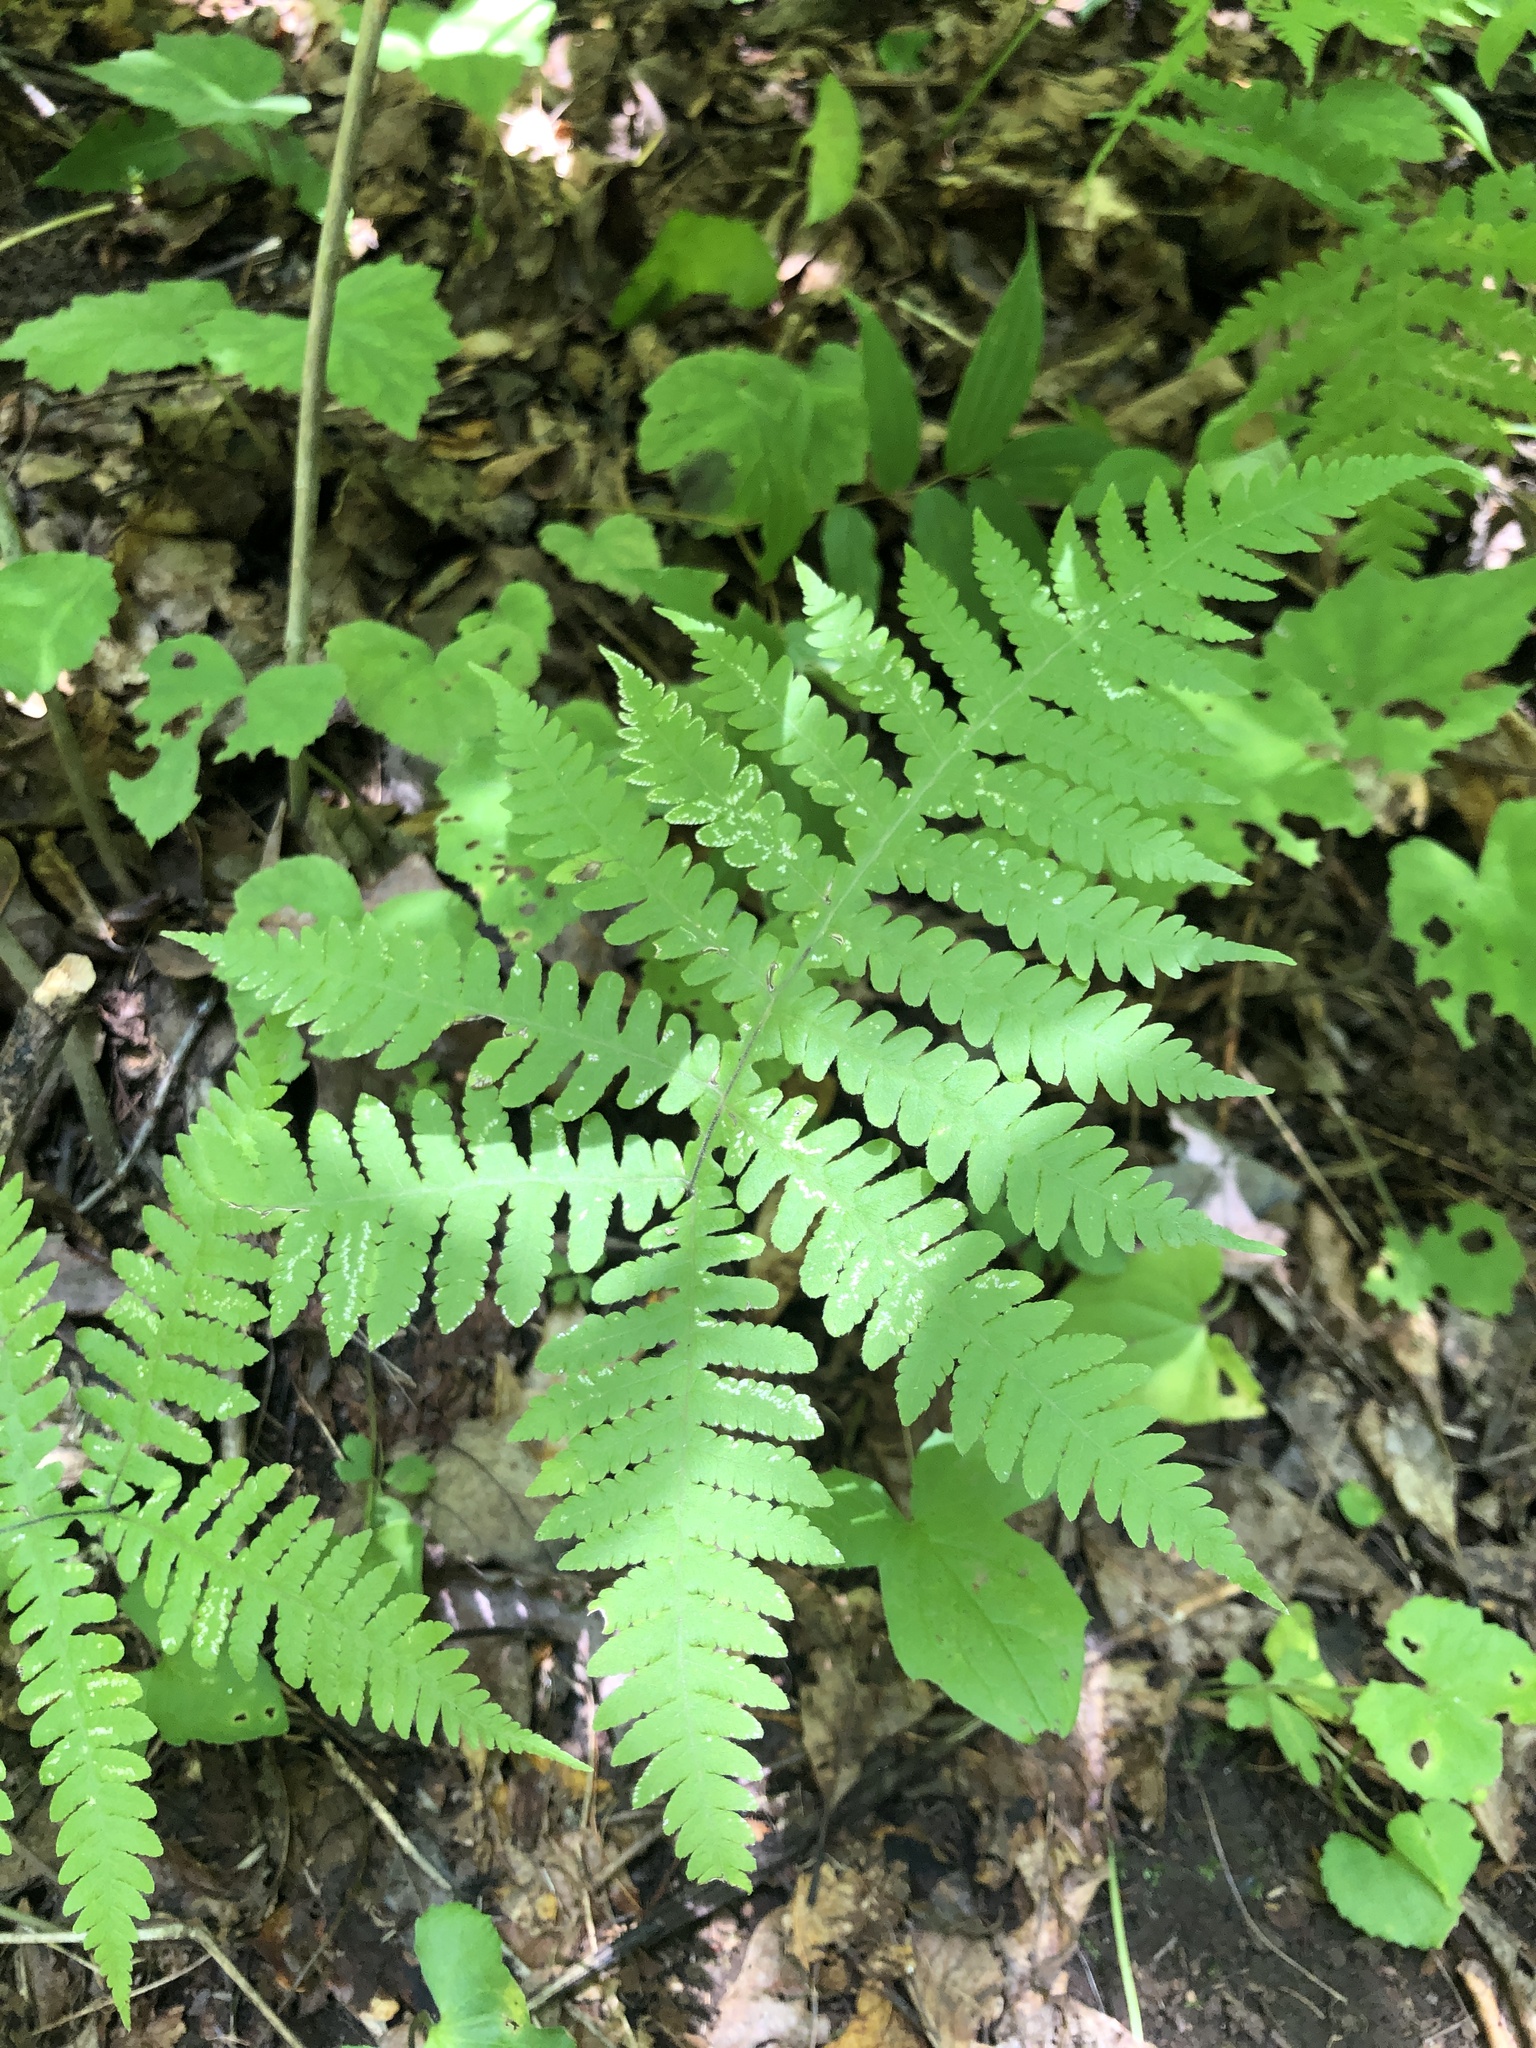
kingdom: Plantae
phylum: Tracheophyta
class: Polypodiopsida
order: Polypodiales
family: Thelypteridaceae
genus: Phegopteris
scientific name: Phegopteris hexagonoptera
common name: Broad beech fern
